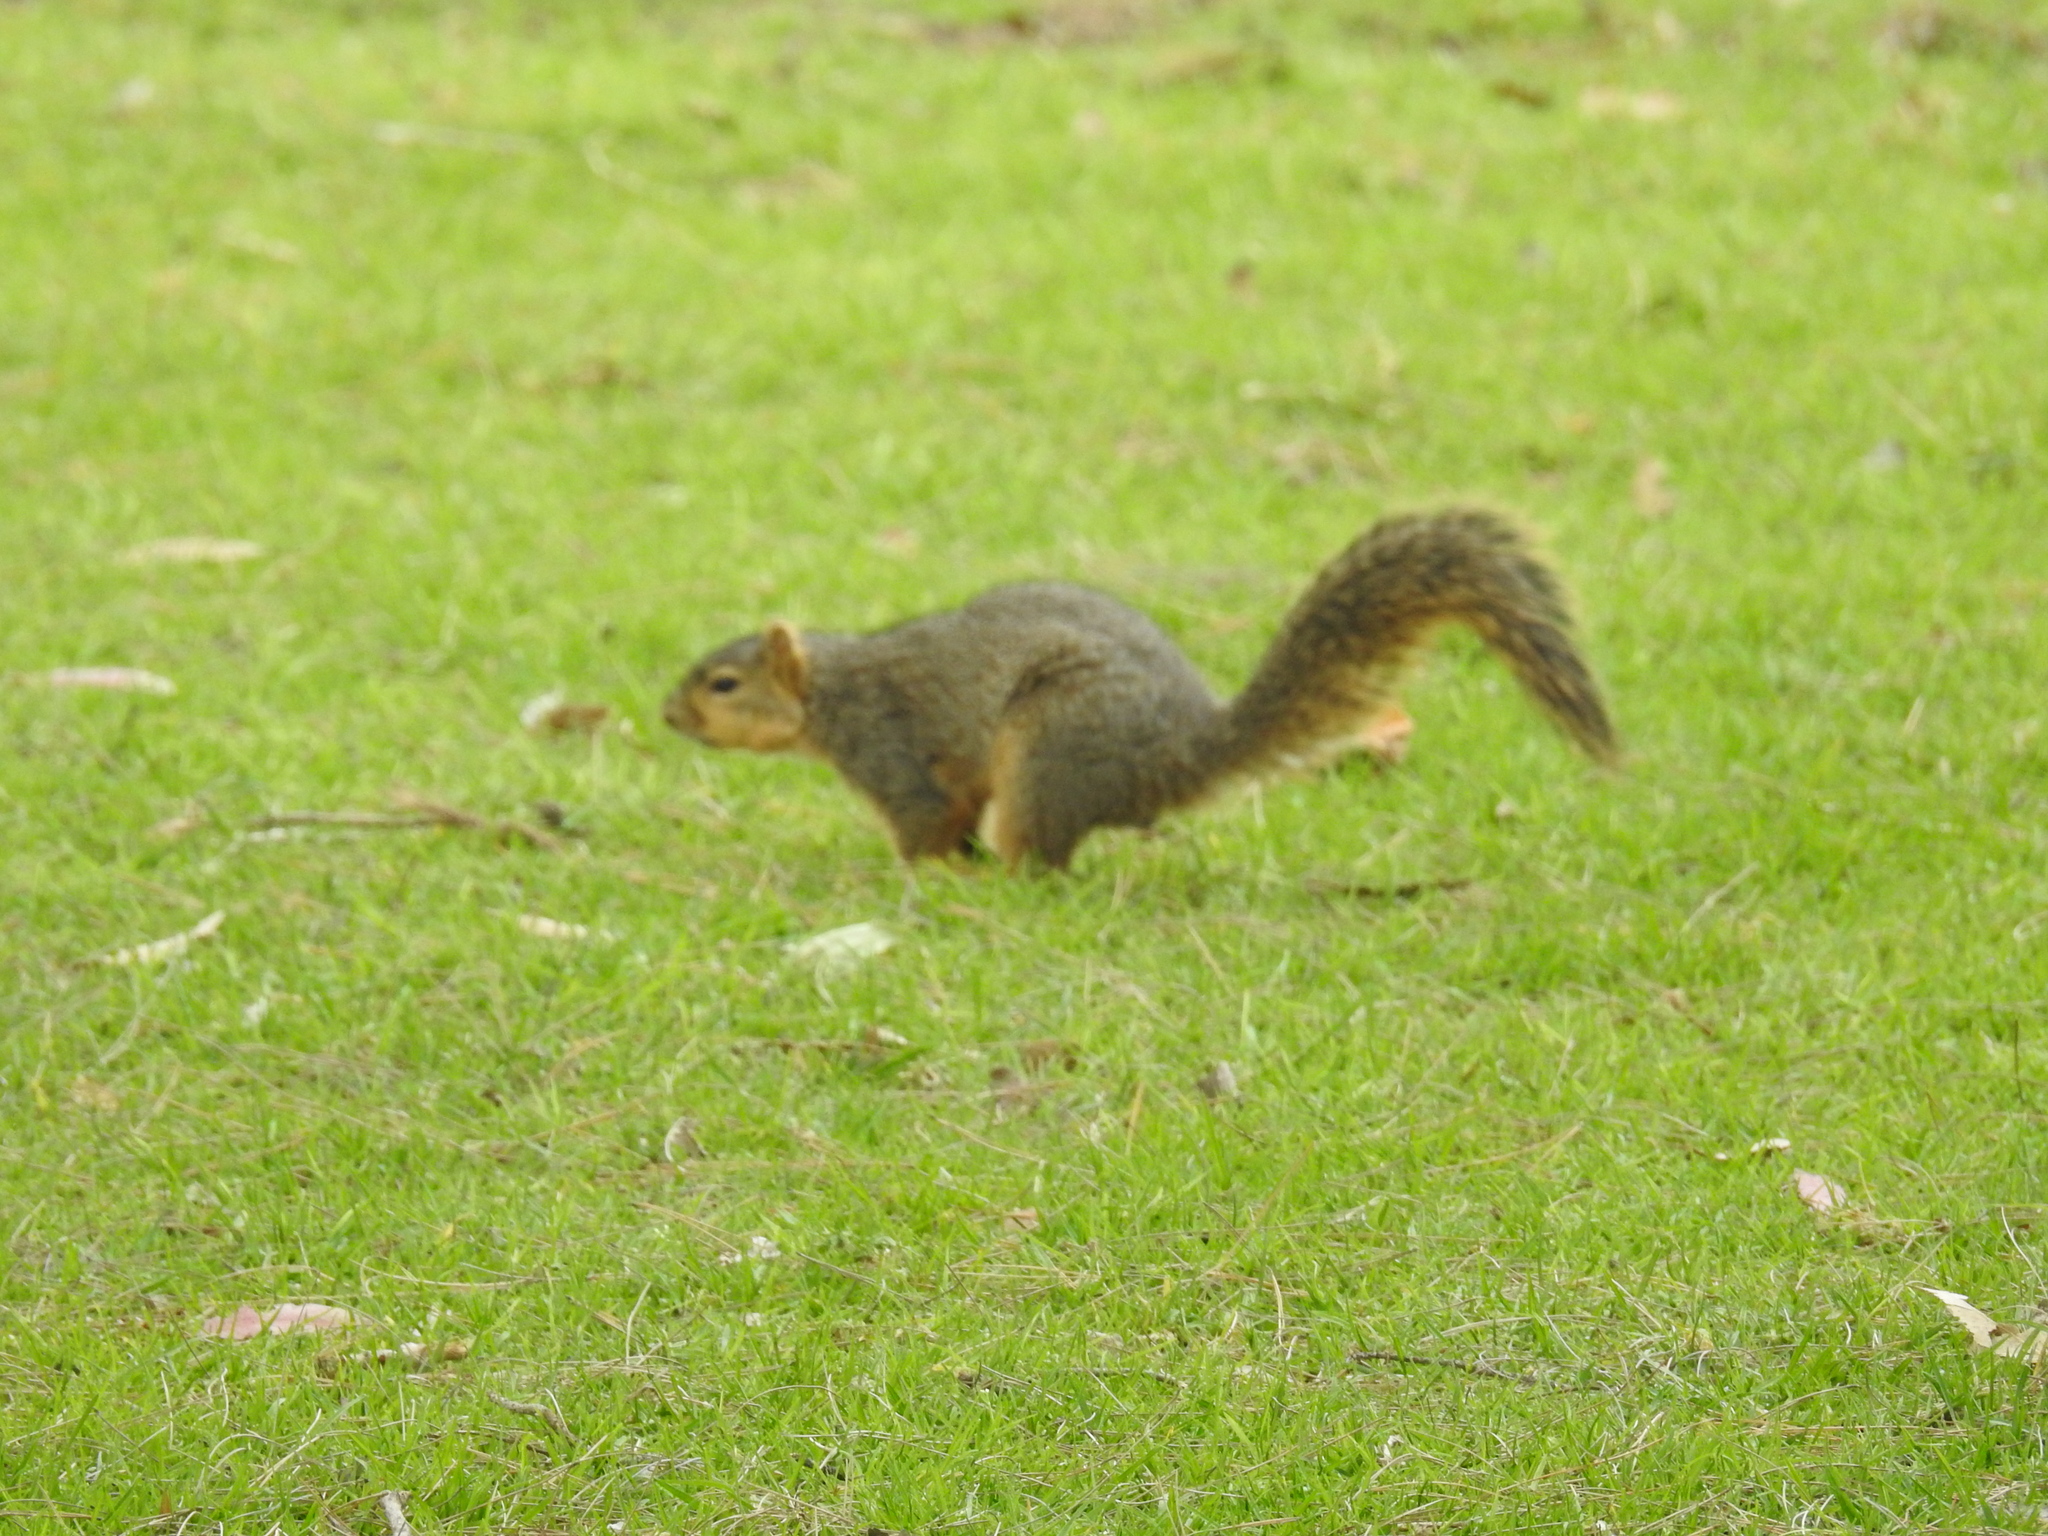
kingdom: Animalia
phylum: Chordata
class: Mammalia
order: Rodentia
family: Sciuridae
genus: Sciurus
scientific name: Sciurus niger
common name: Fox squirrel
